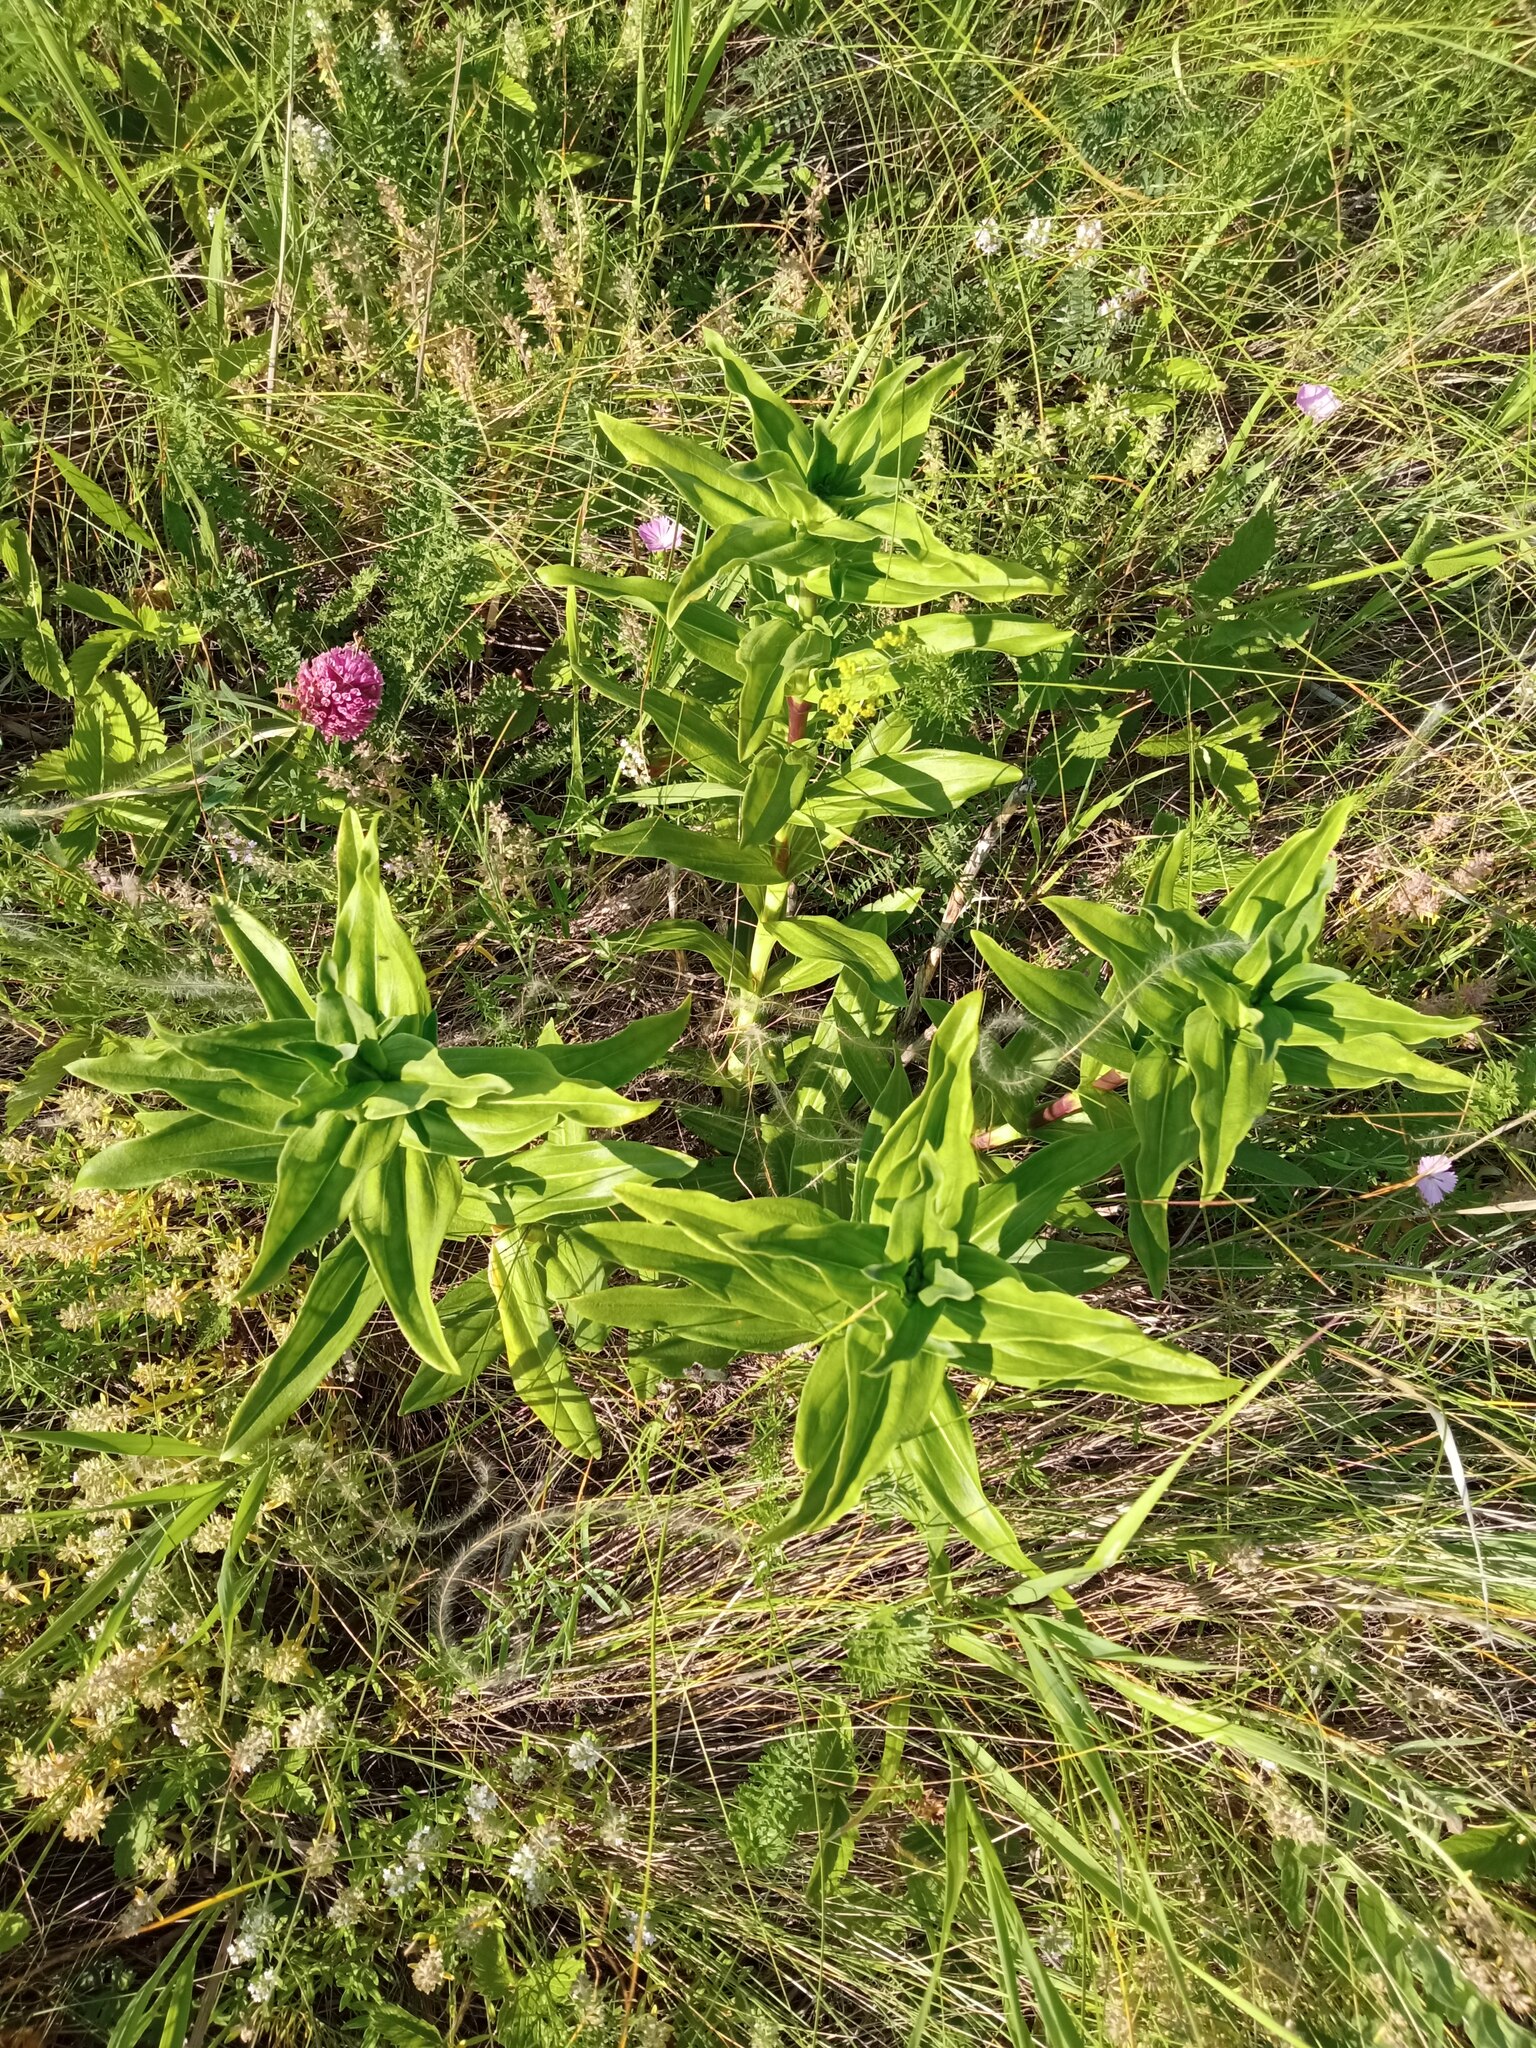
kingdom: Plantae
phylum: Tracheophyta
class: Magnoliopsida
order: Gentianales
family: Gentianaceae
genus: Gentiana
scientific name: Gentiana cruciata
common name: Cross gentian
